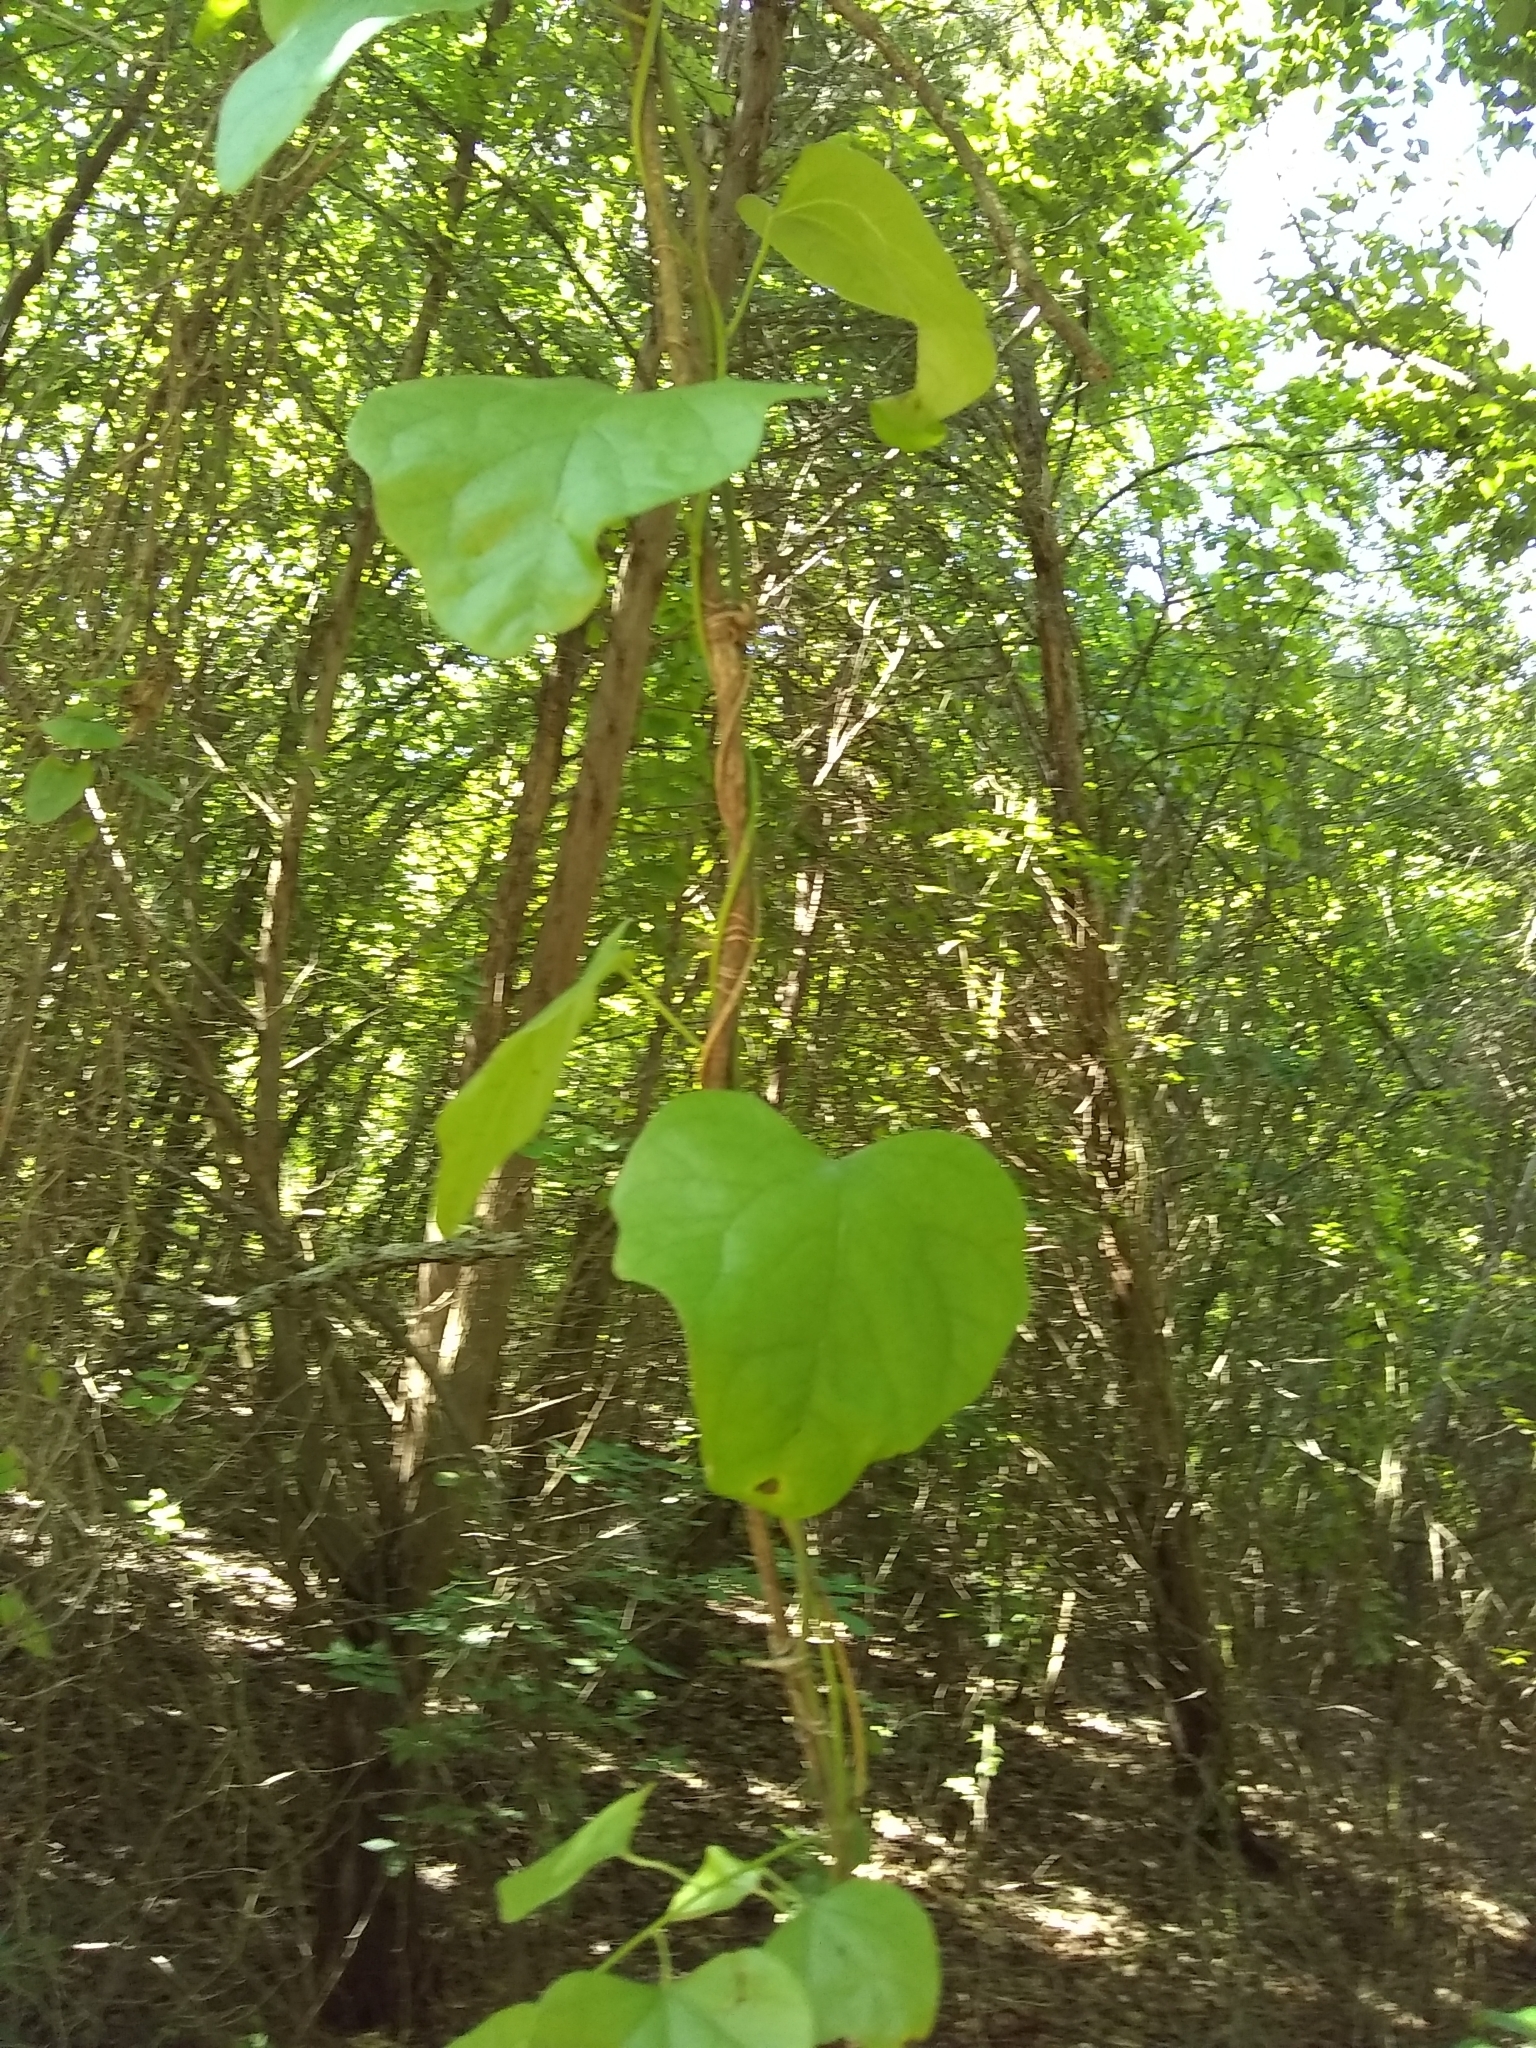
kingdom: Plantae
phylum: Tracheophyta
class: Liliopsida
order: Liliales
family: Smilacaceae
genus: Smilax
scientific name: Smilax bona-nox
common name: Catbrier
